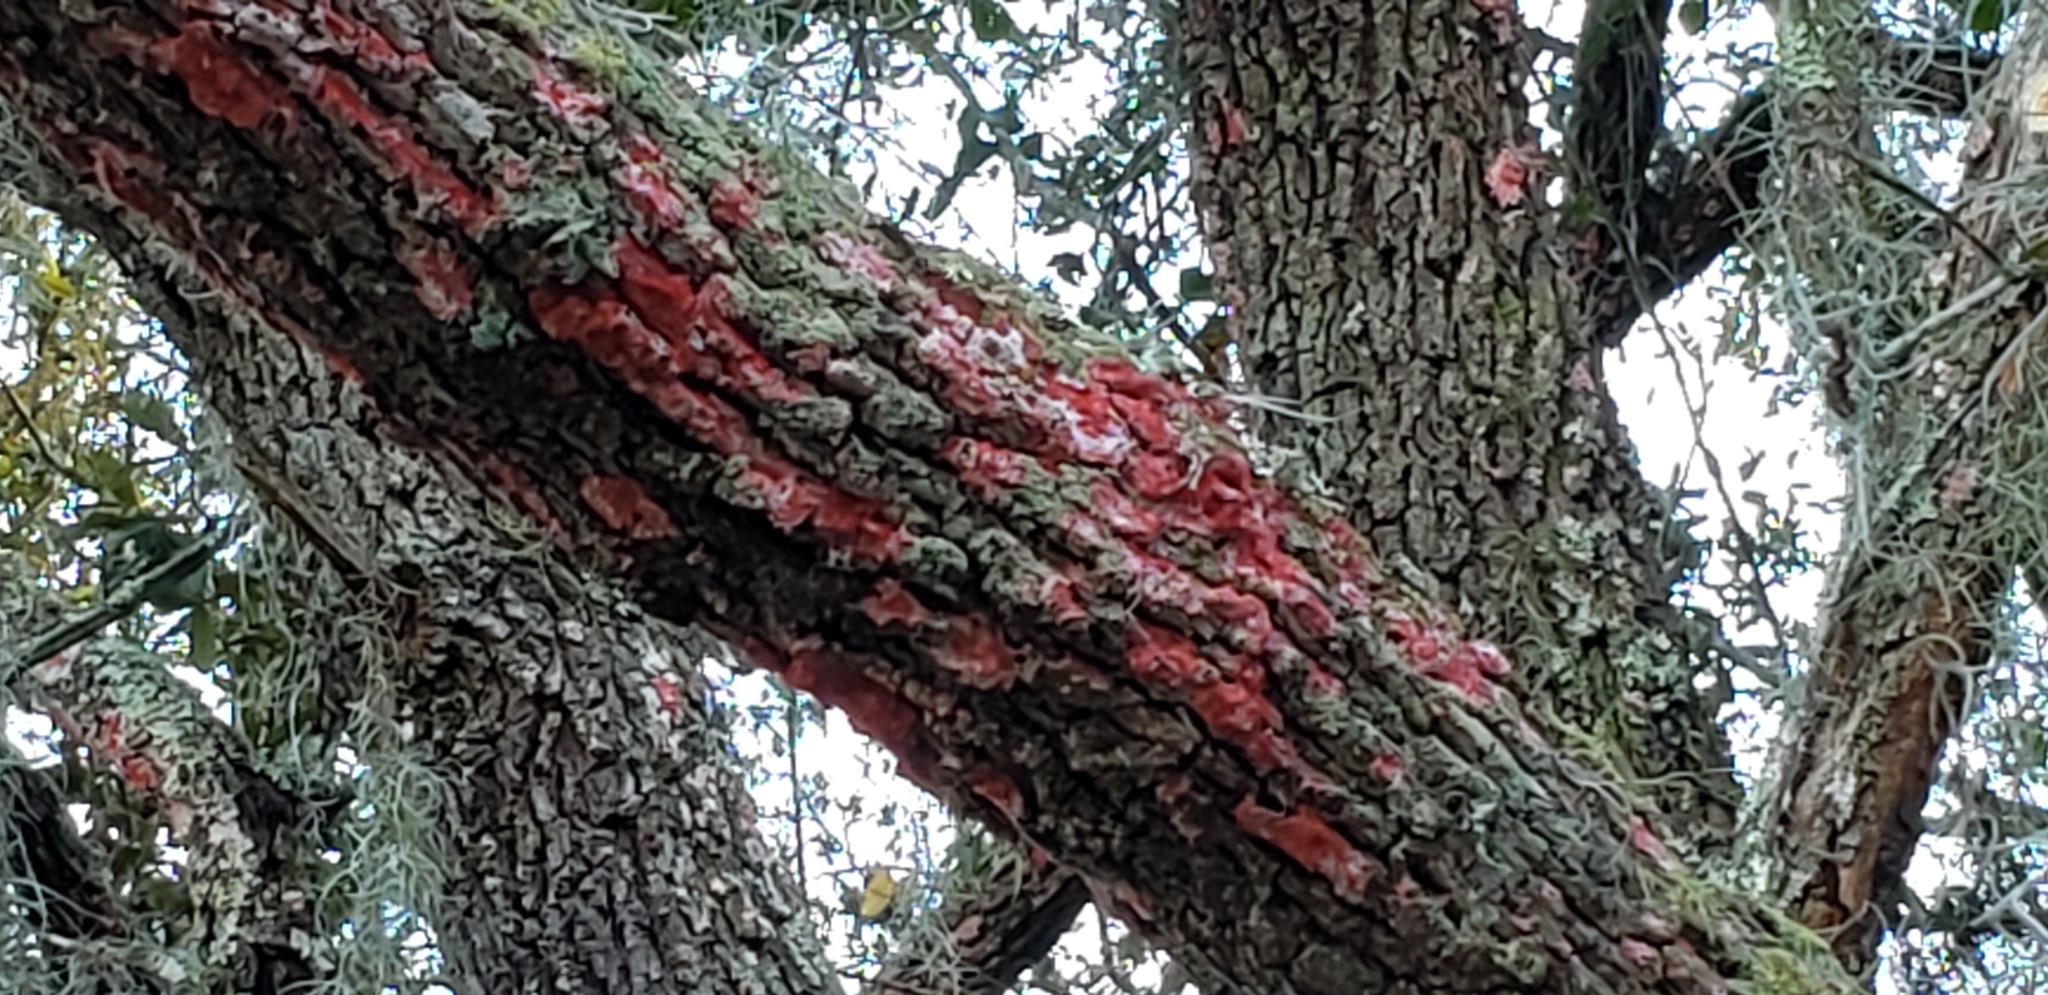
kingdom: Fungi
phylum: Ascomycota
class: Arthoniomycetes
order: Arthoniales
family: Arthoniaceae
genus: Herpothallon
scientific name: Herpothallon rubrocinctum
